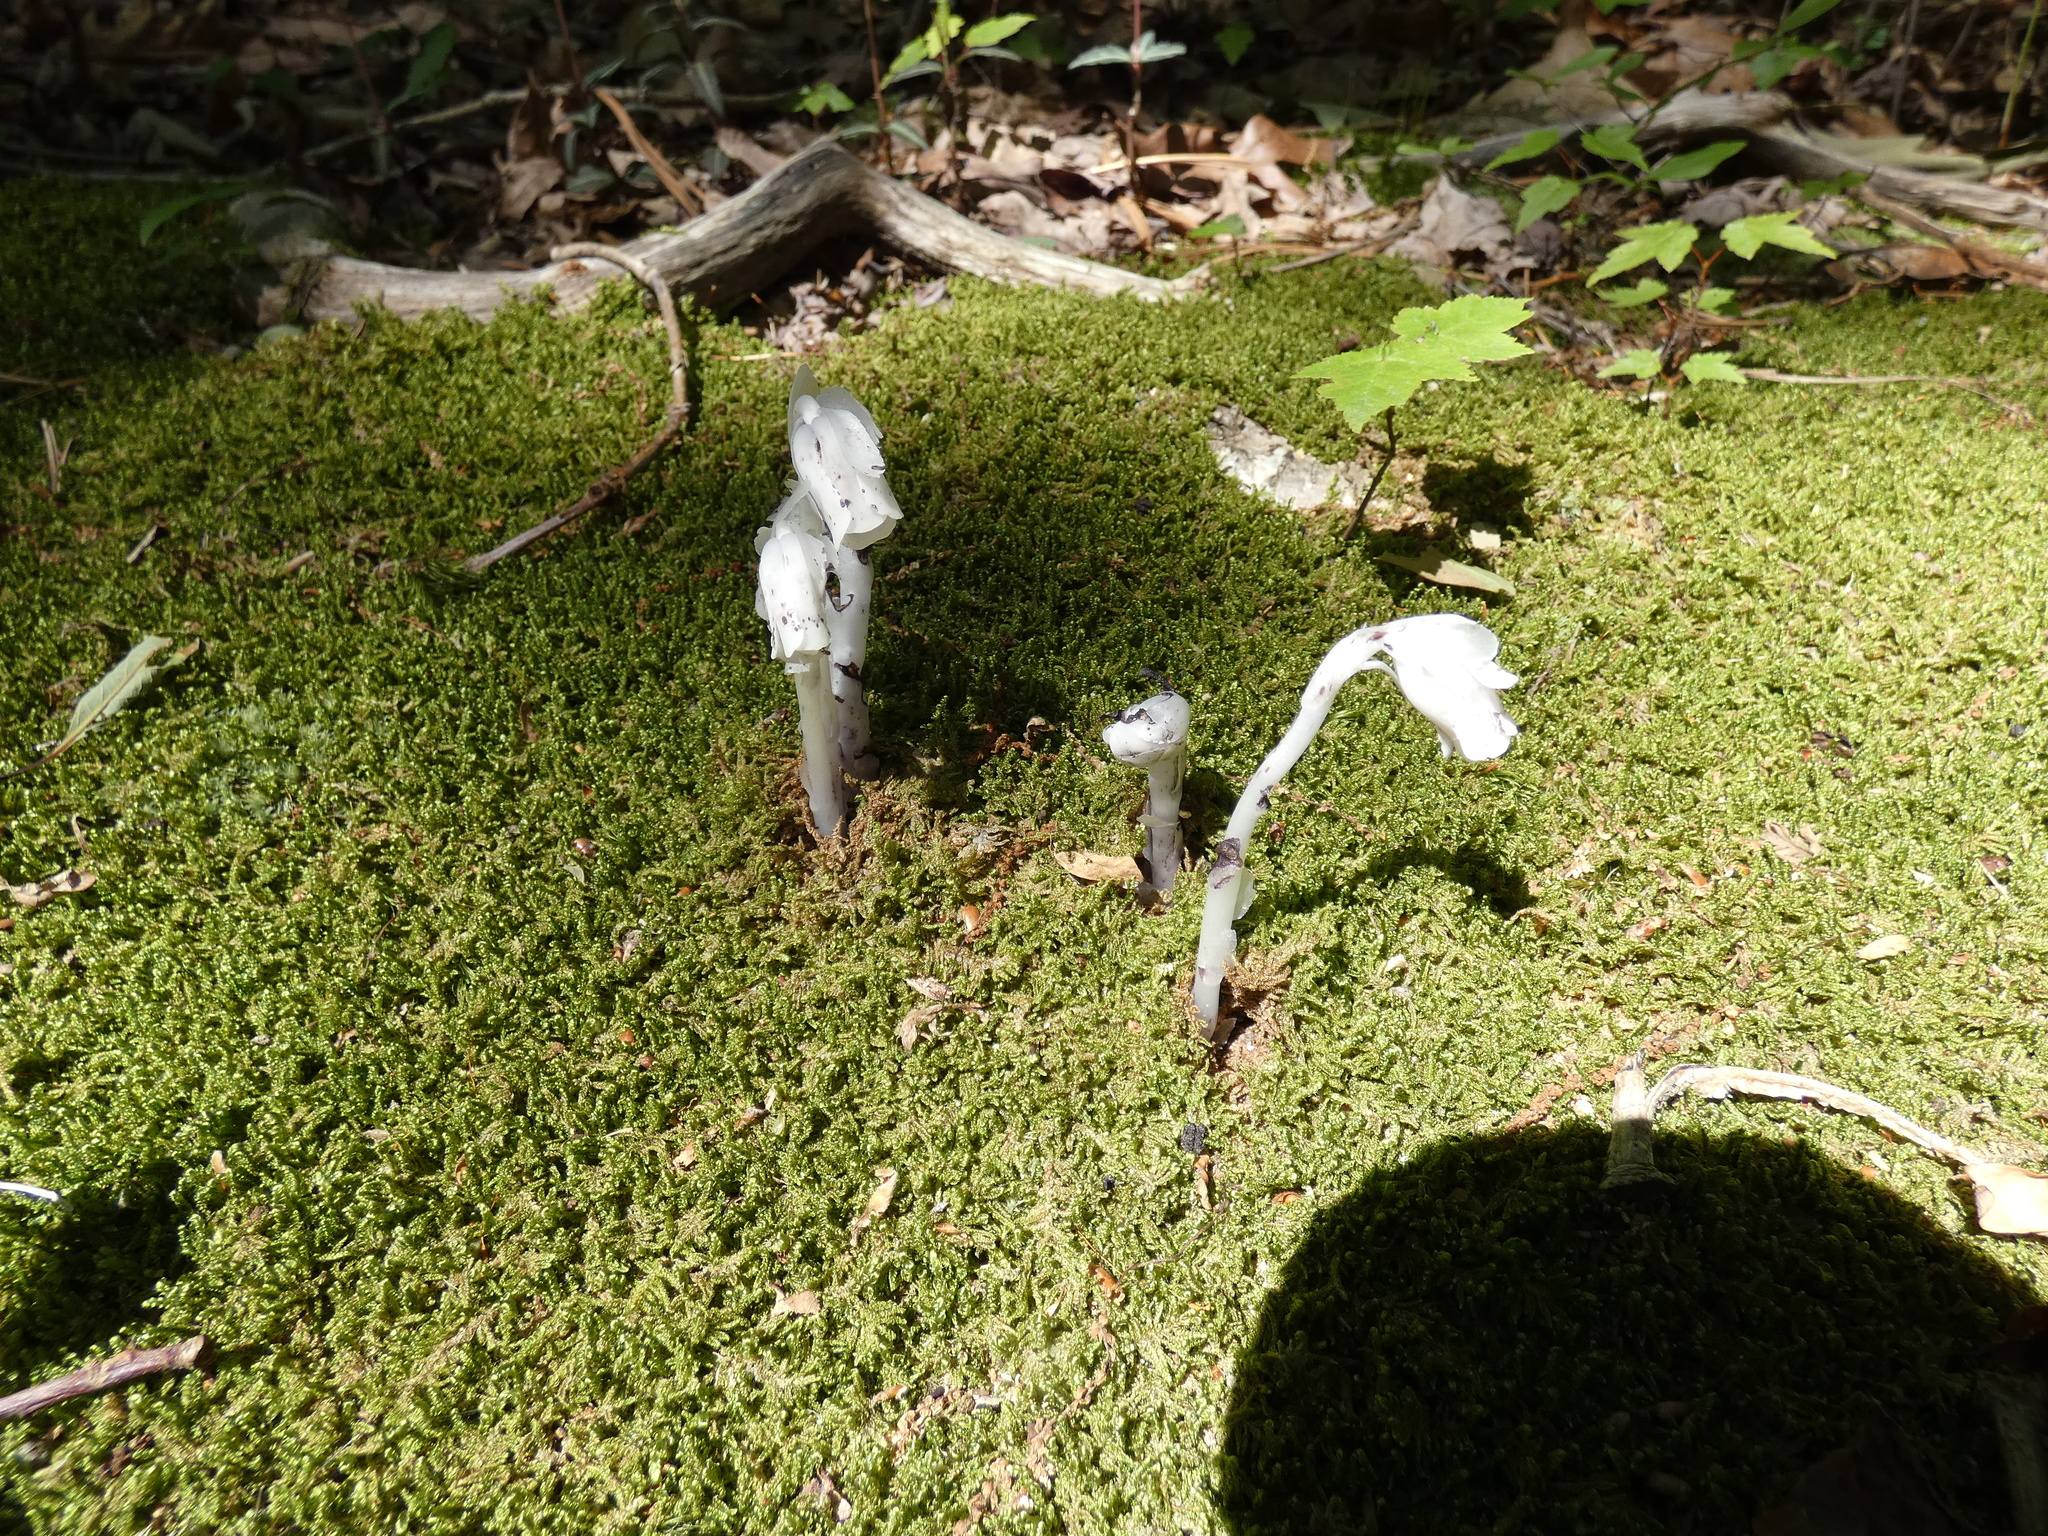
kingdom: Plantae
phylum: Tracheophyta
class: Magnoliopsida
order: Ericales
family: Ericaceae
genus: Monotropa
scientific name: Monotropa uniflora
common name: Convulsion root
